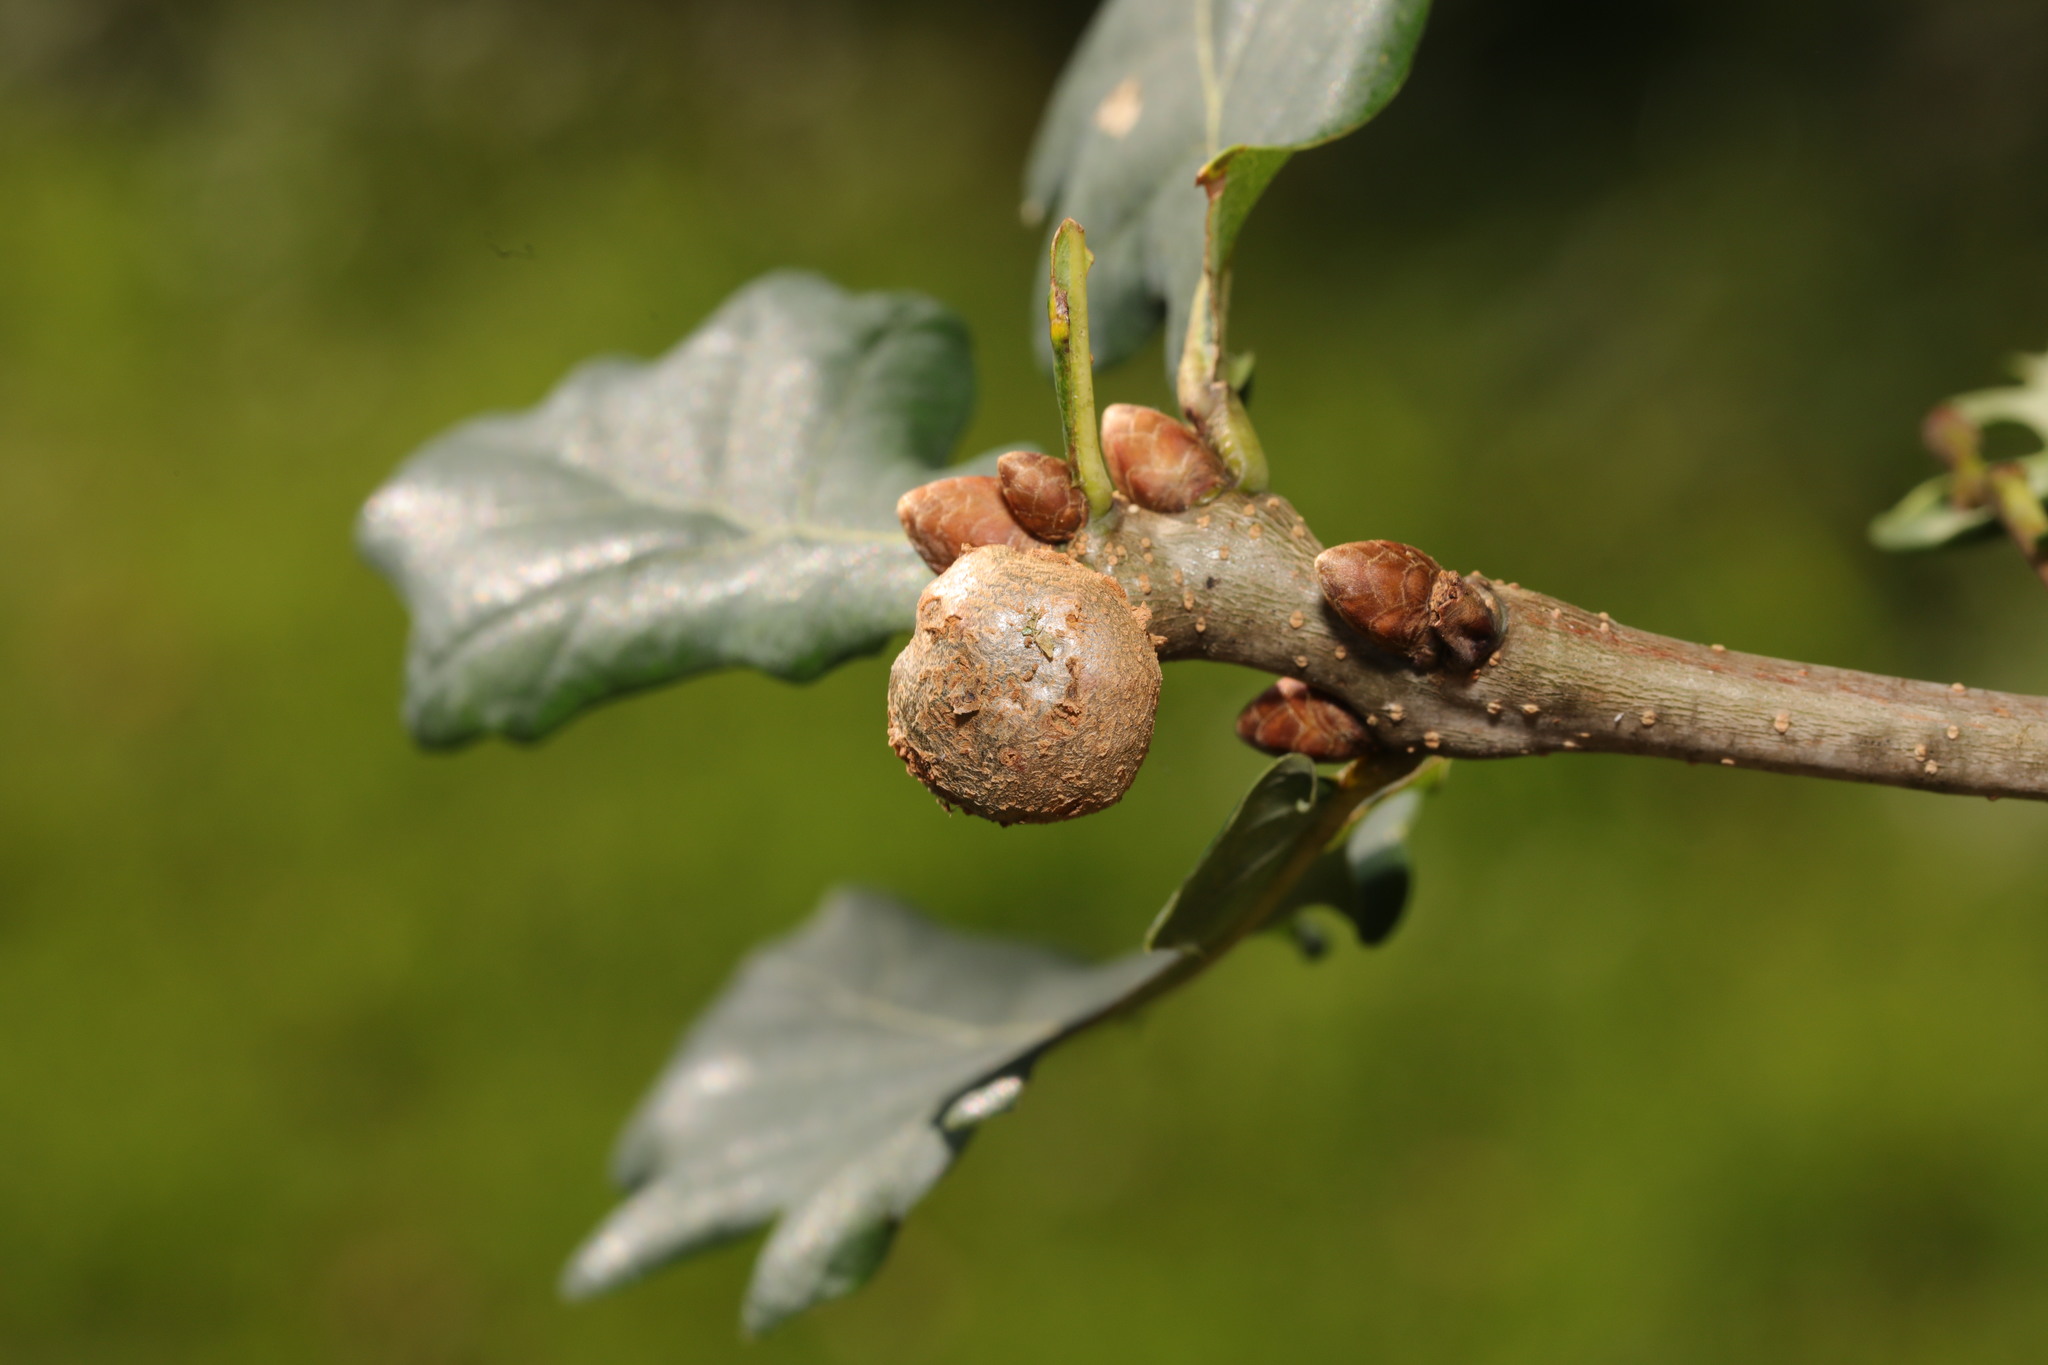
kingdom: Animalia
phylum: Arthropoda
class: Insecta
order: Hymenoptera
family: Cynipidae
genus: Andricus
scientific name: Andricus lignicolus
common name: Cola-nut gall
